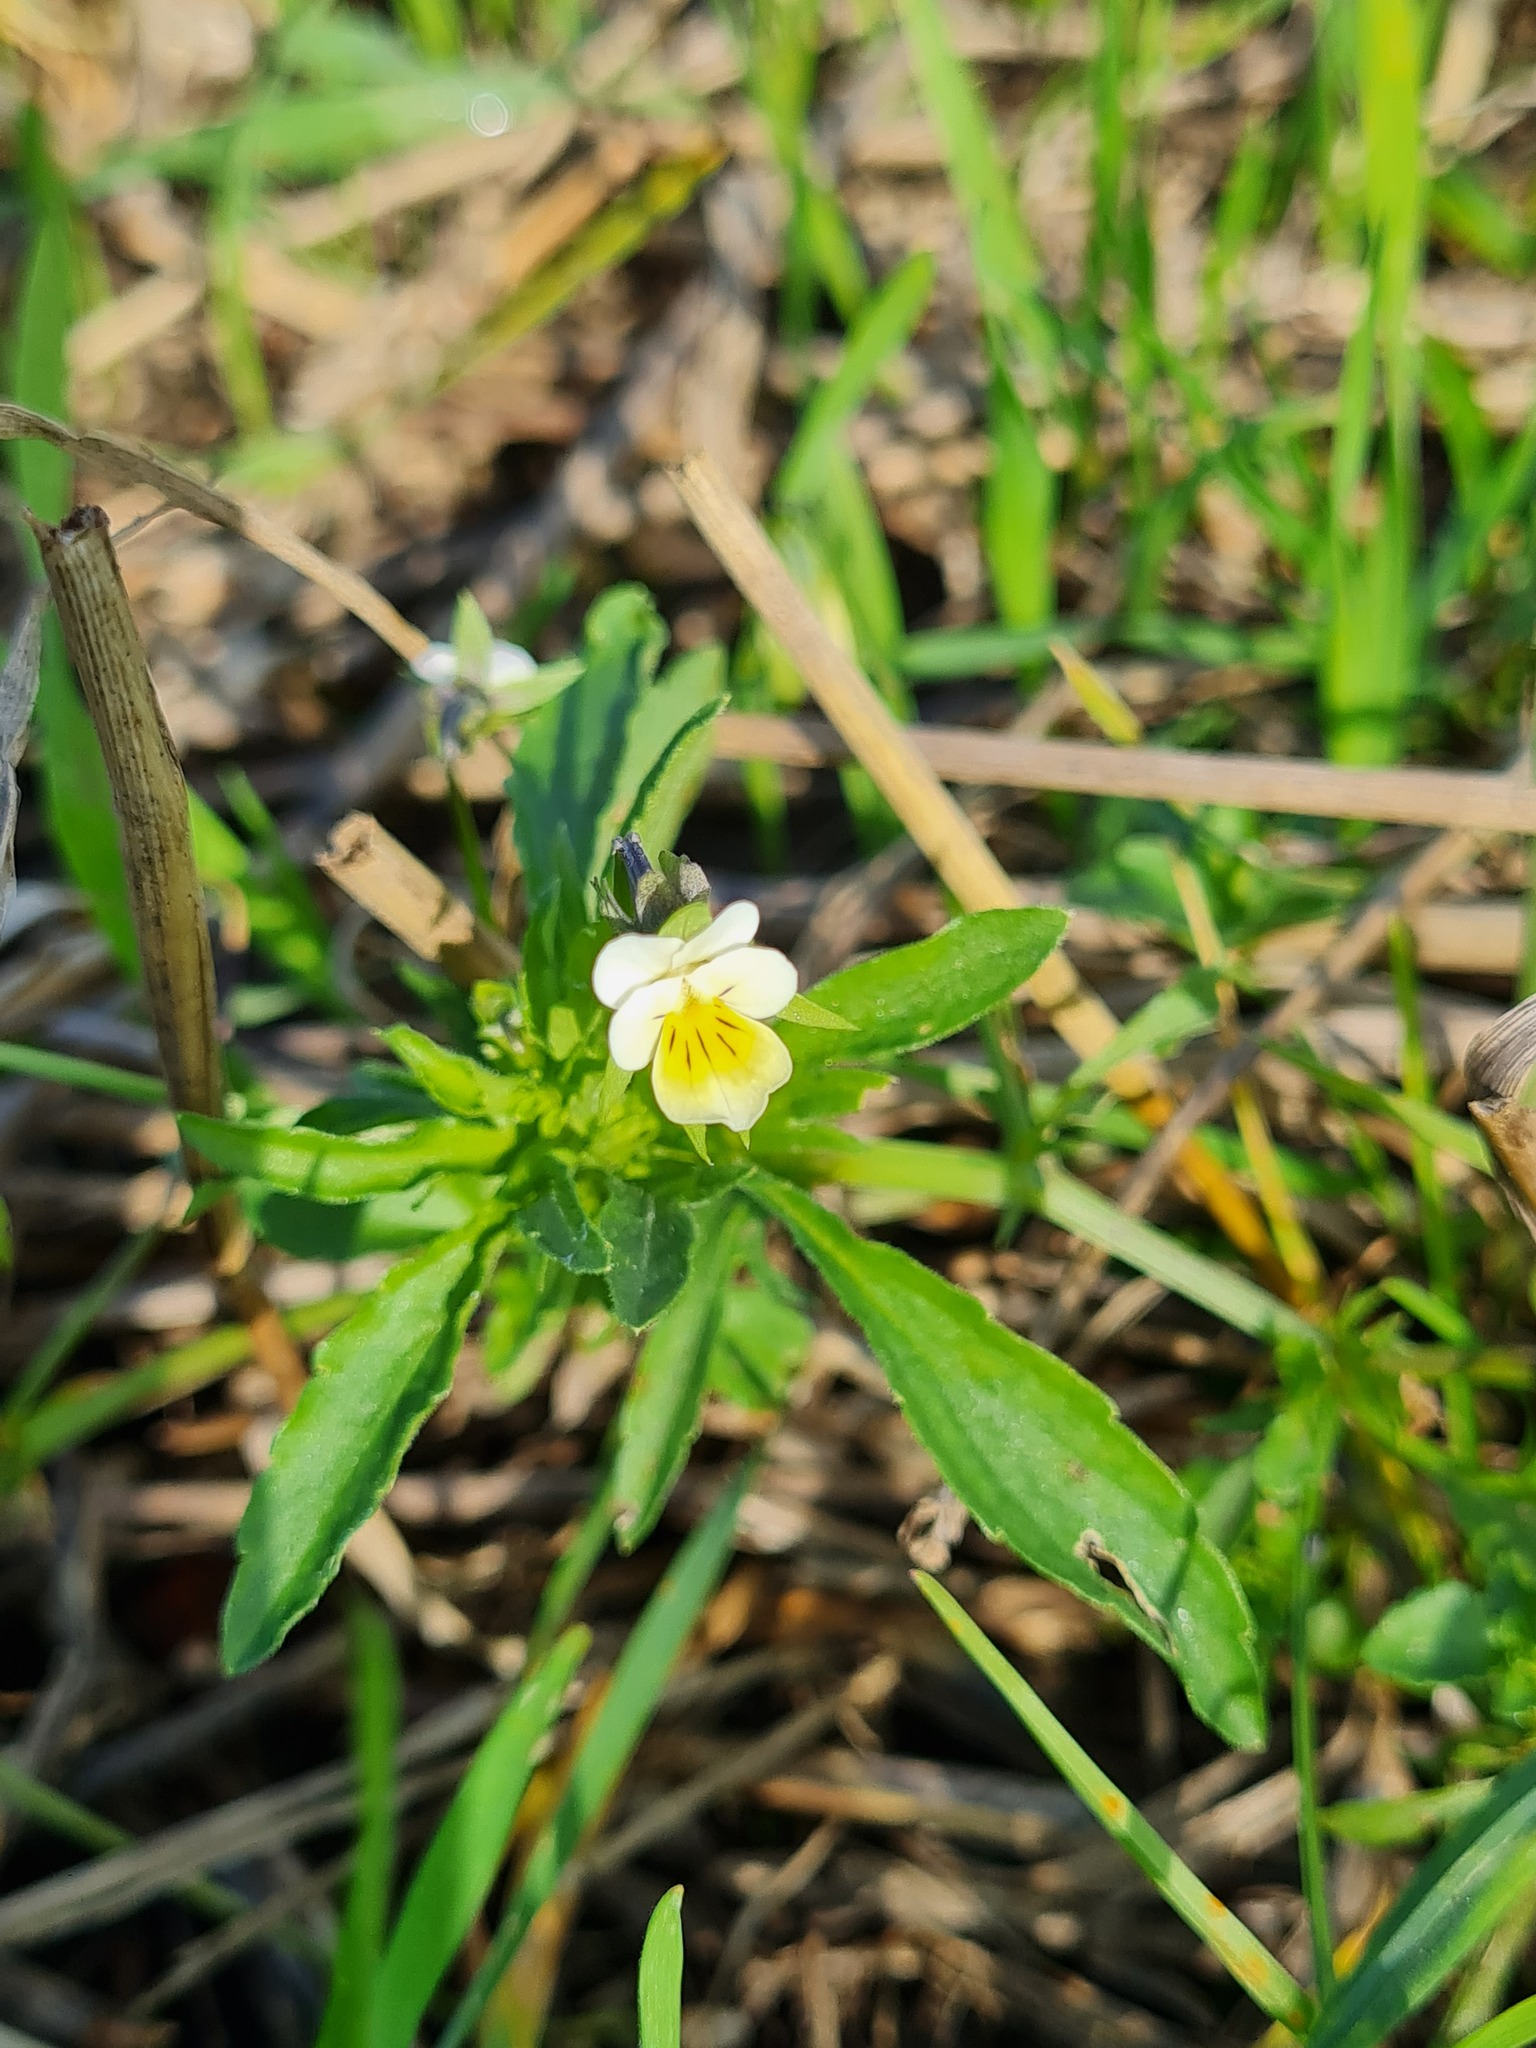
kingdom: Plantae
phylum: Tracheophyta
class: Magnoliopsida
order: Malpighiales
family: Violaceae
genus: Viola
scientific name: Viola arvensis
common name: Field pansy
